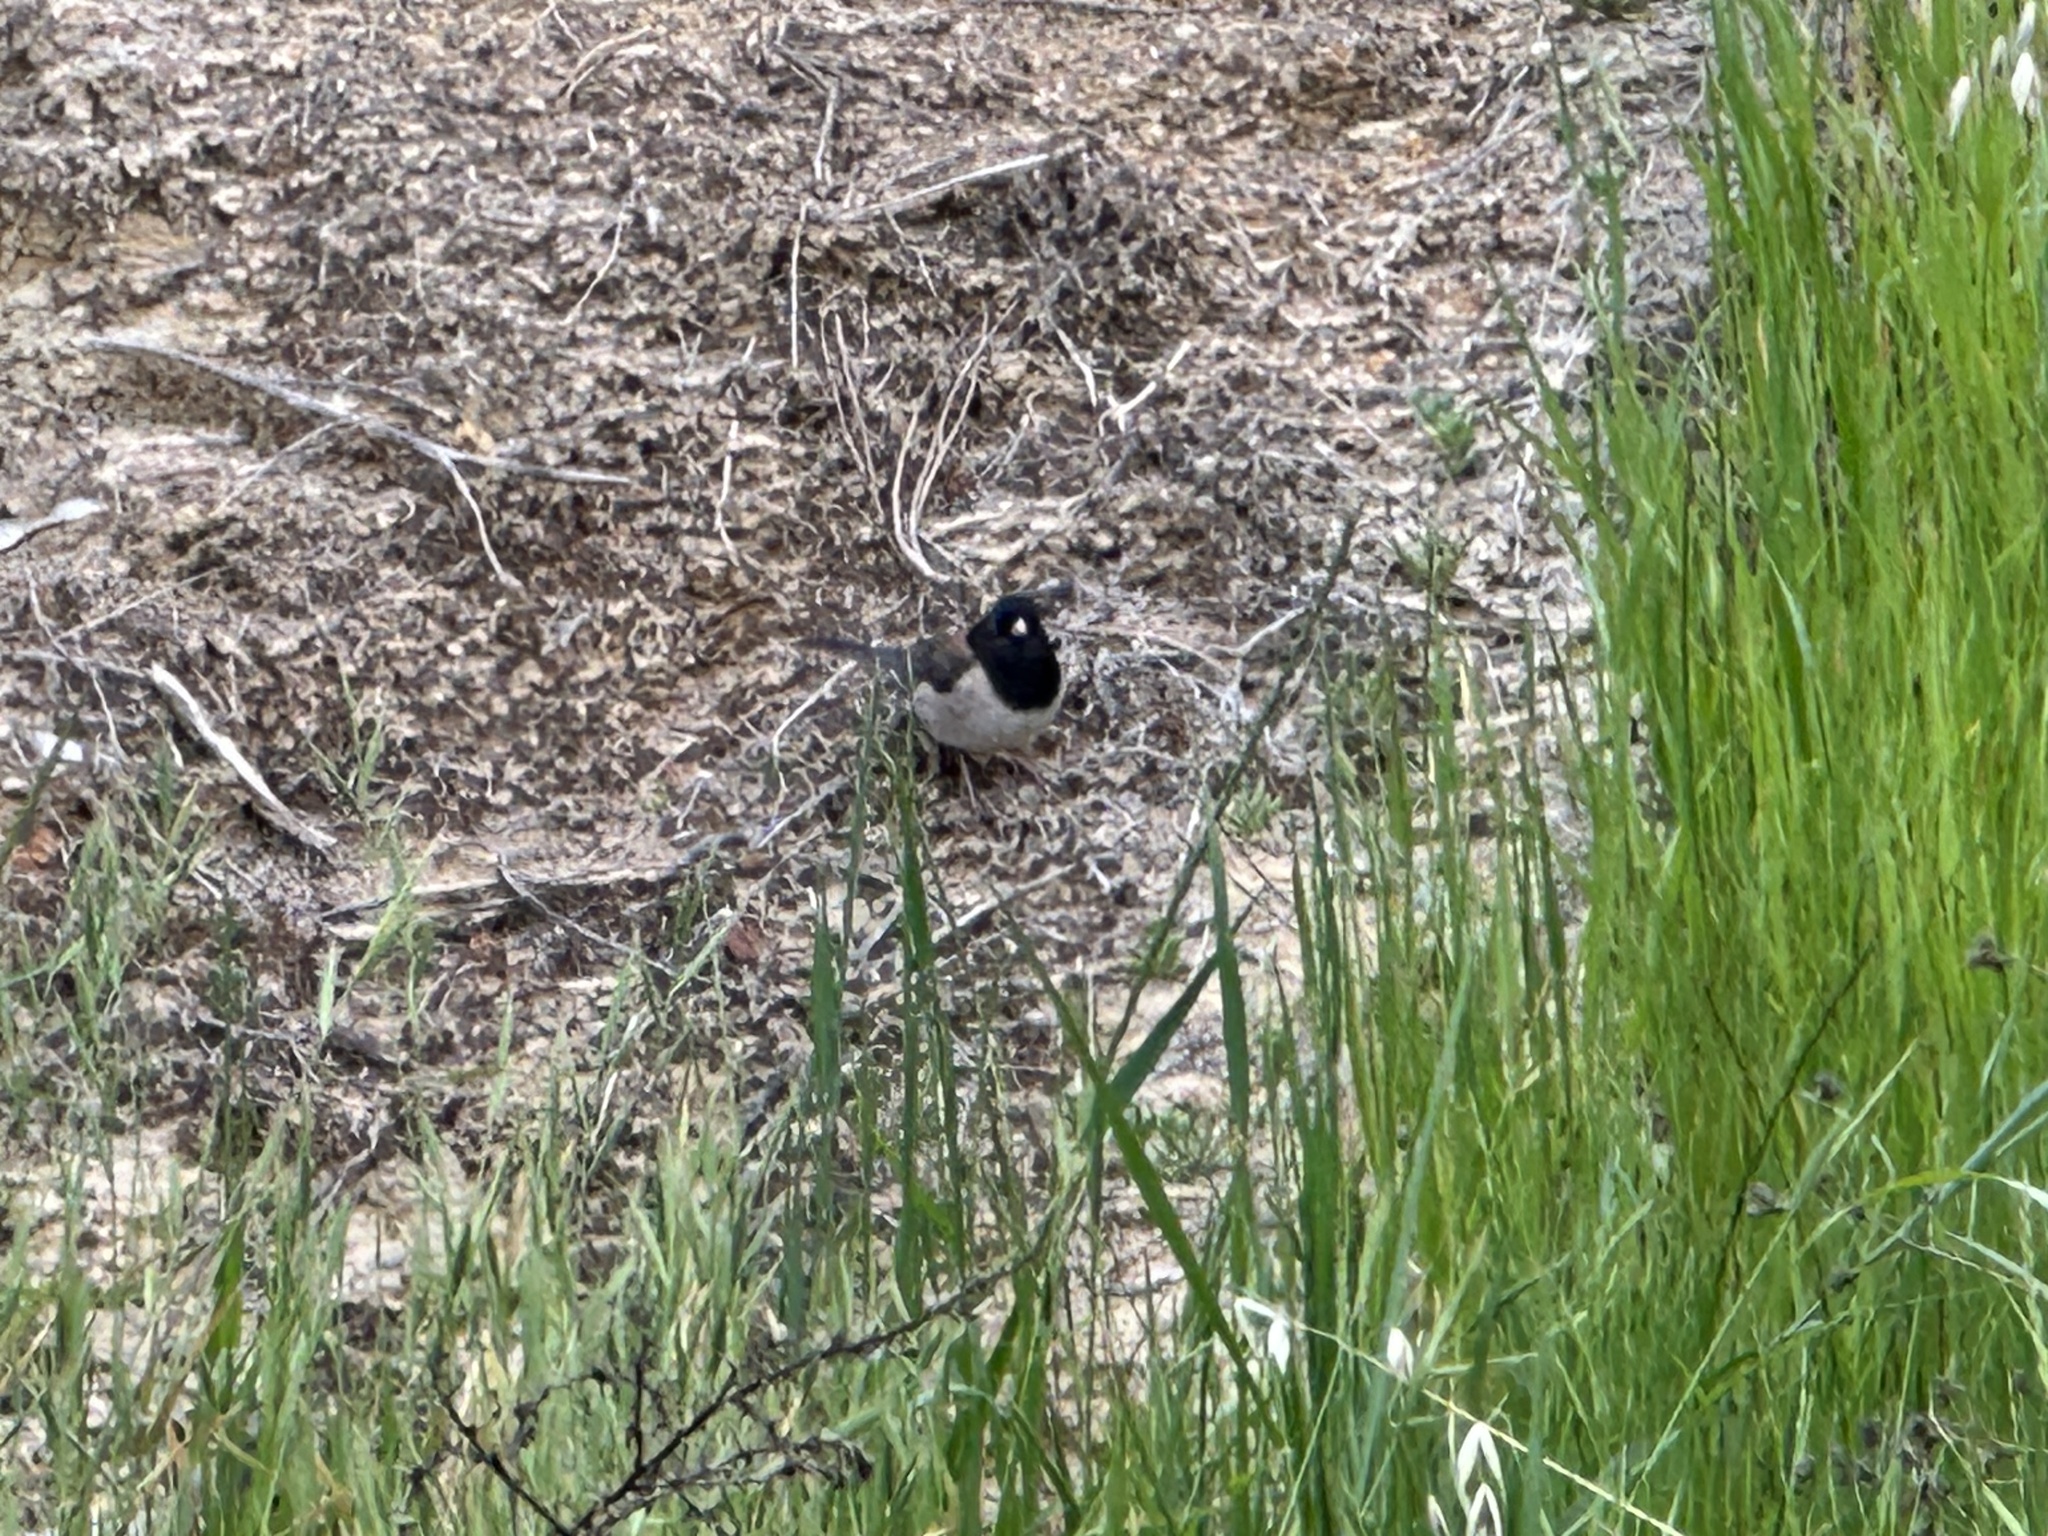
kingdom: Animalia
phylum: Chordata
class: Aves
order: Passeriformes
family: Passerellidae
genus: Junco
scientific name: Junco hyemalis
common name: Dark-eyed junco
